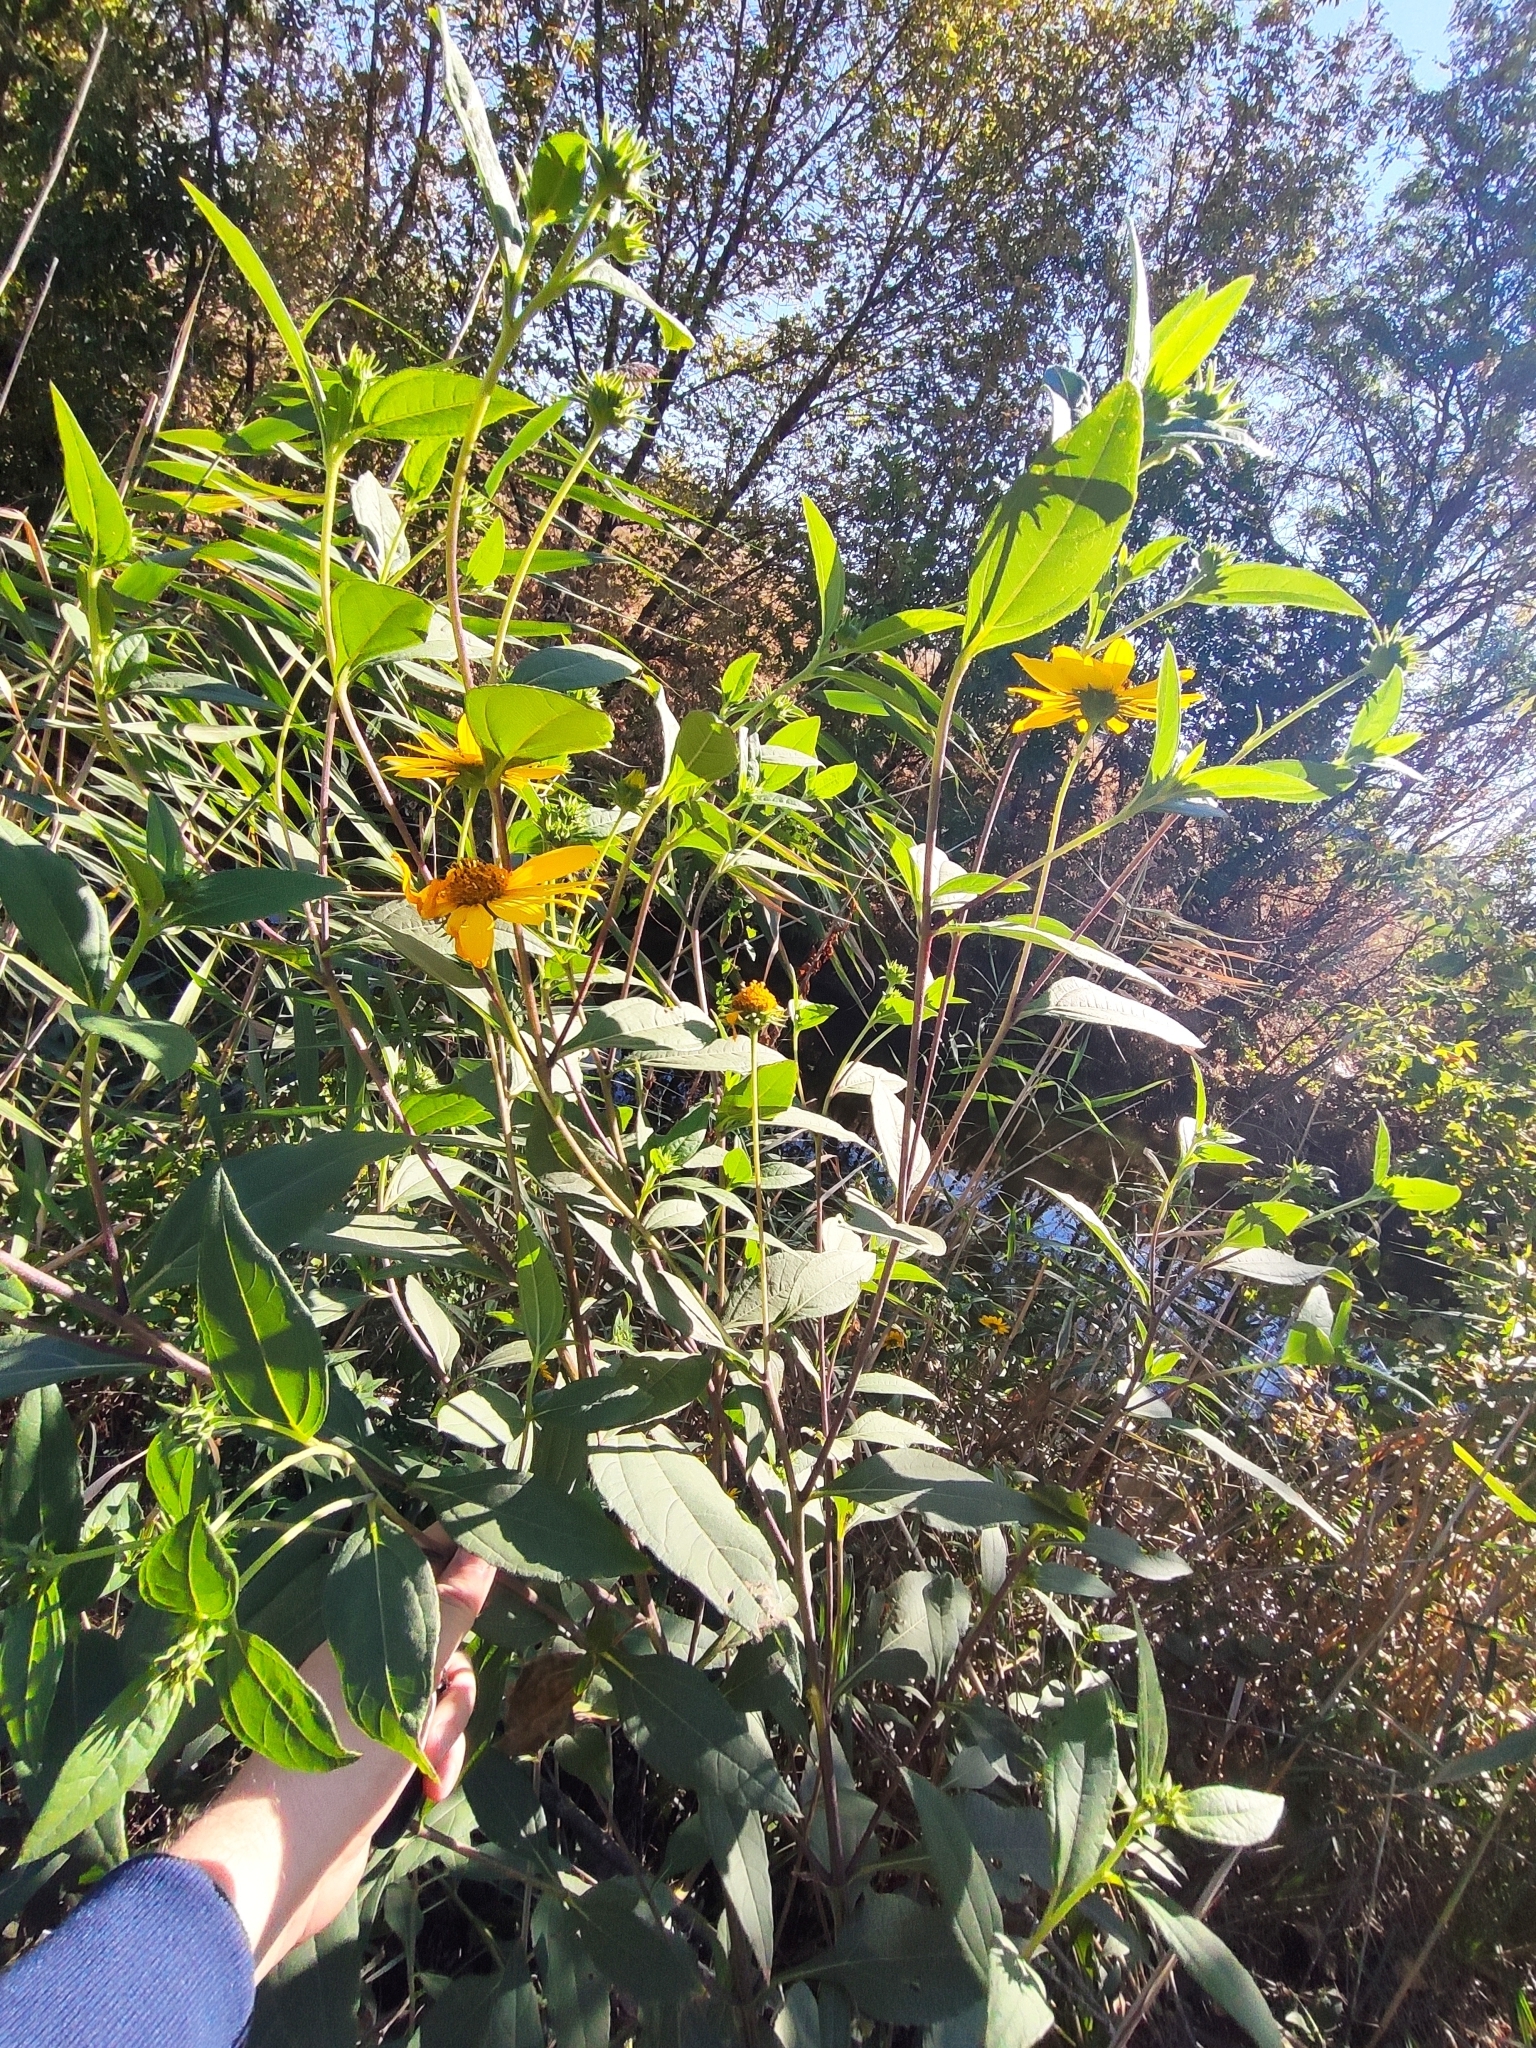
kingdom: Plantae
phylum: Tracheophyta
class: Magnoliopsida
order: Asterales
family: Asteraceae
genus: Helianthus
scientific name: Helianthus tuberosus
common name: Jerusalem artichoke
